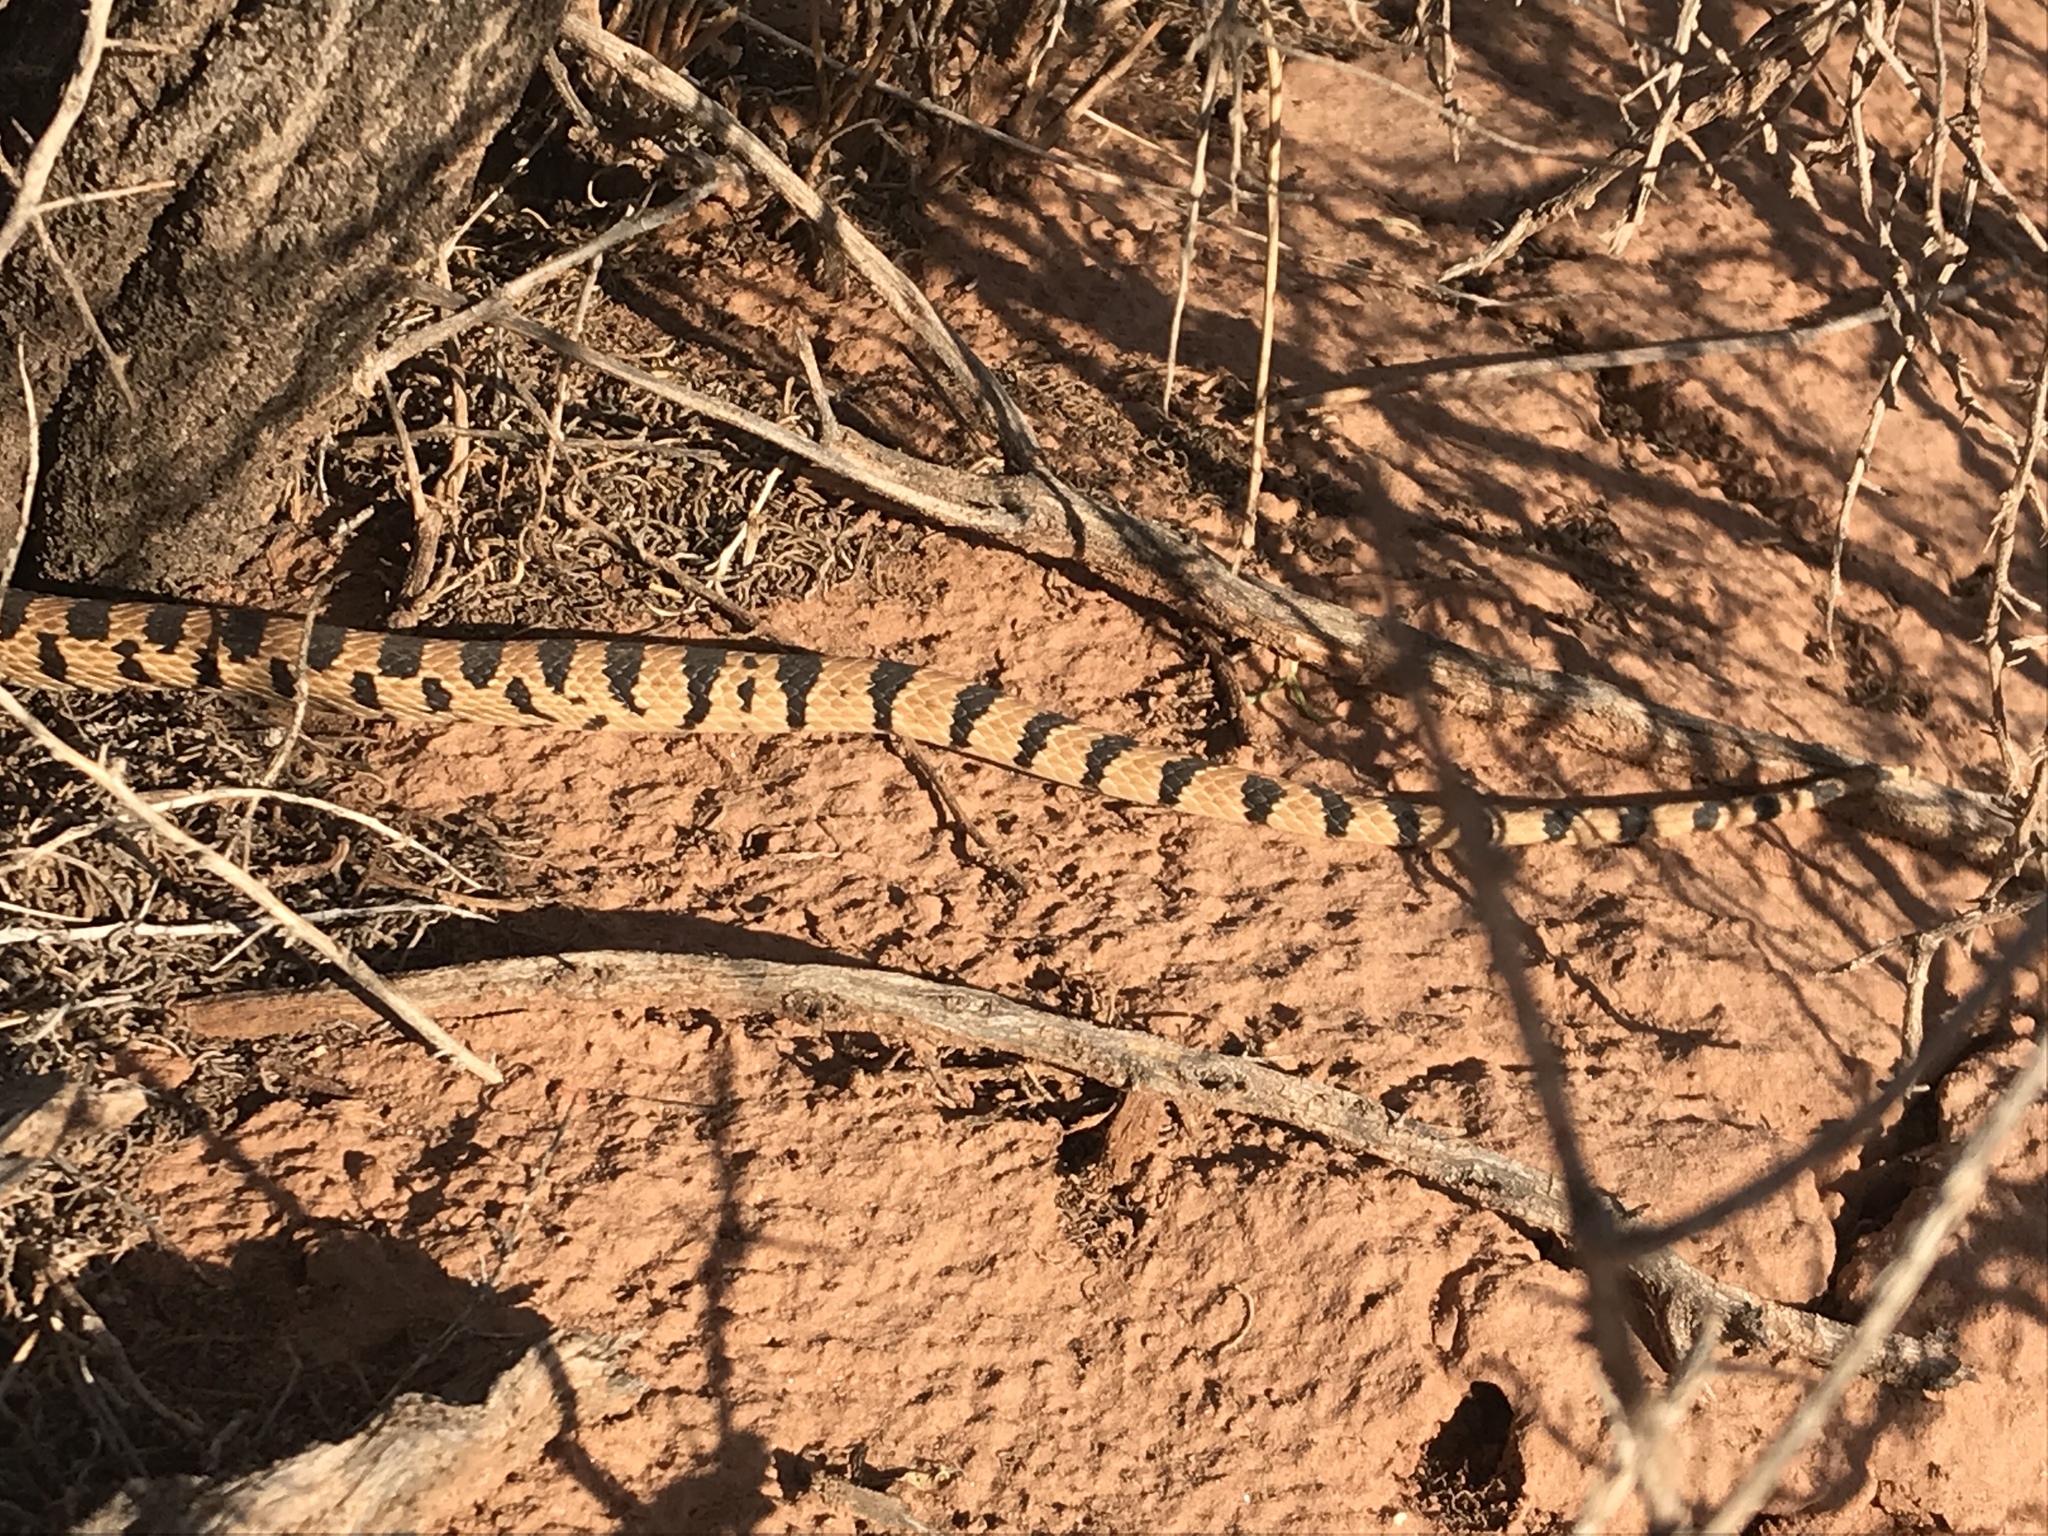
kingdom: Animalia
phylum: Chordata
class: Squamata
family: Colubridae
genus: Pituophis
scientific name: Pituophis catenifer
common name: Gopher snake
